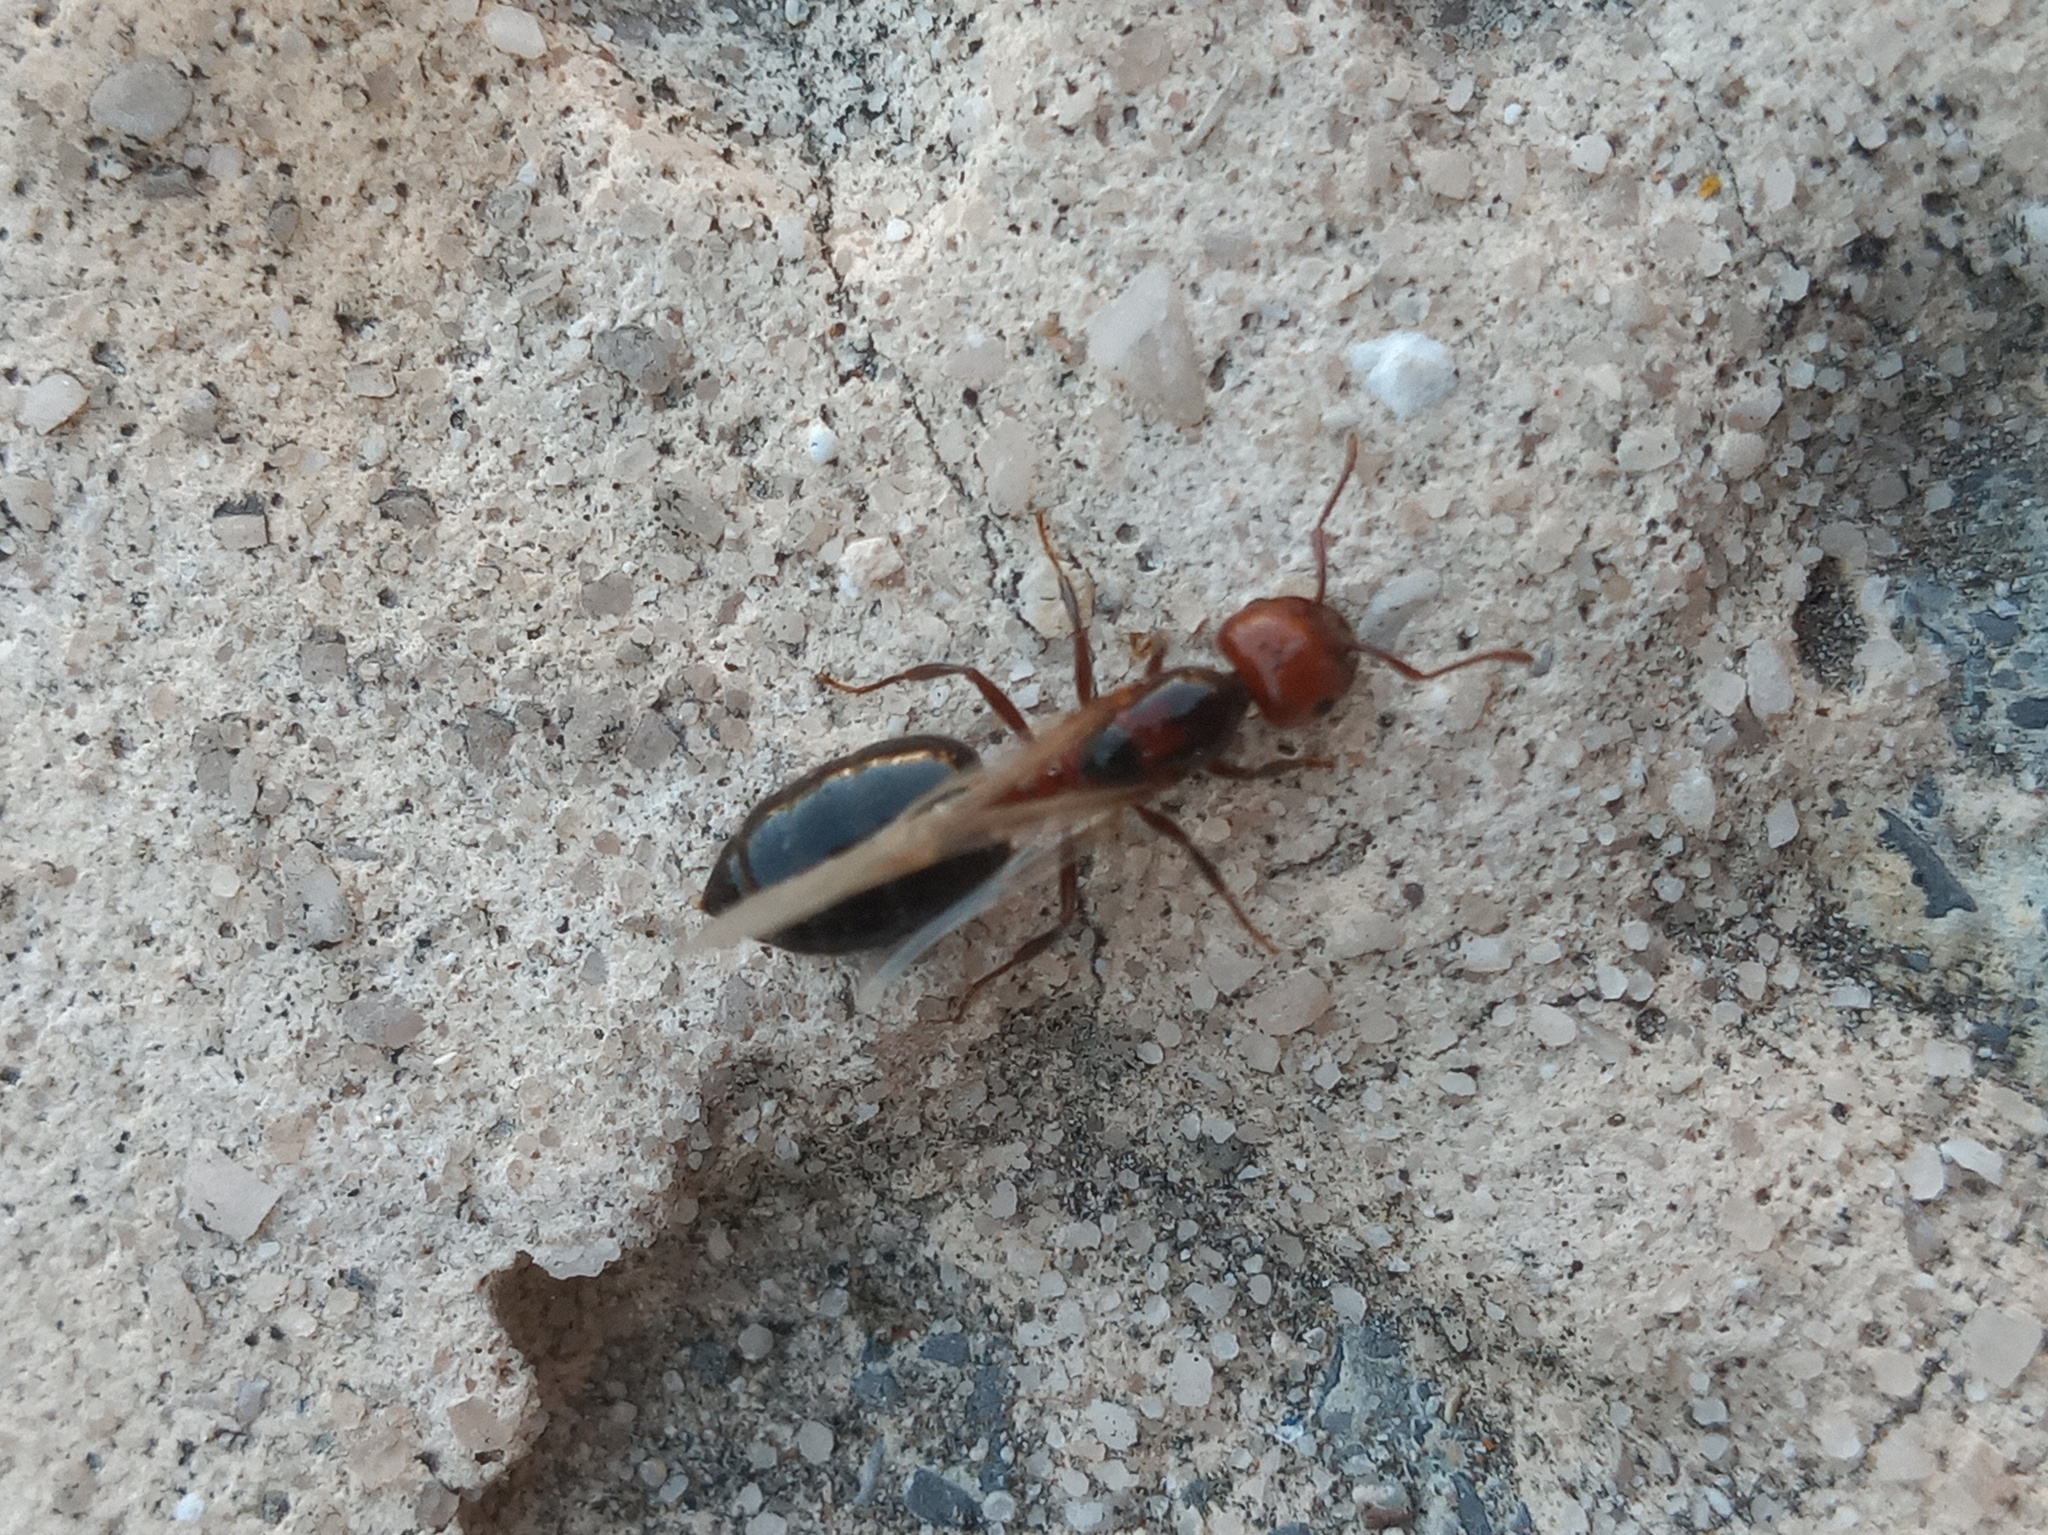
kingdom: Animalia
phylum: Arthropoda
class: Insecta
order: Hymenoptera
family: Formicidae
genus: Crematogaster
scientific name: Crematogaster laeviuscula
